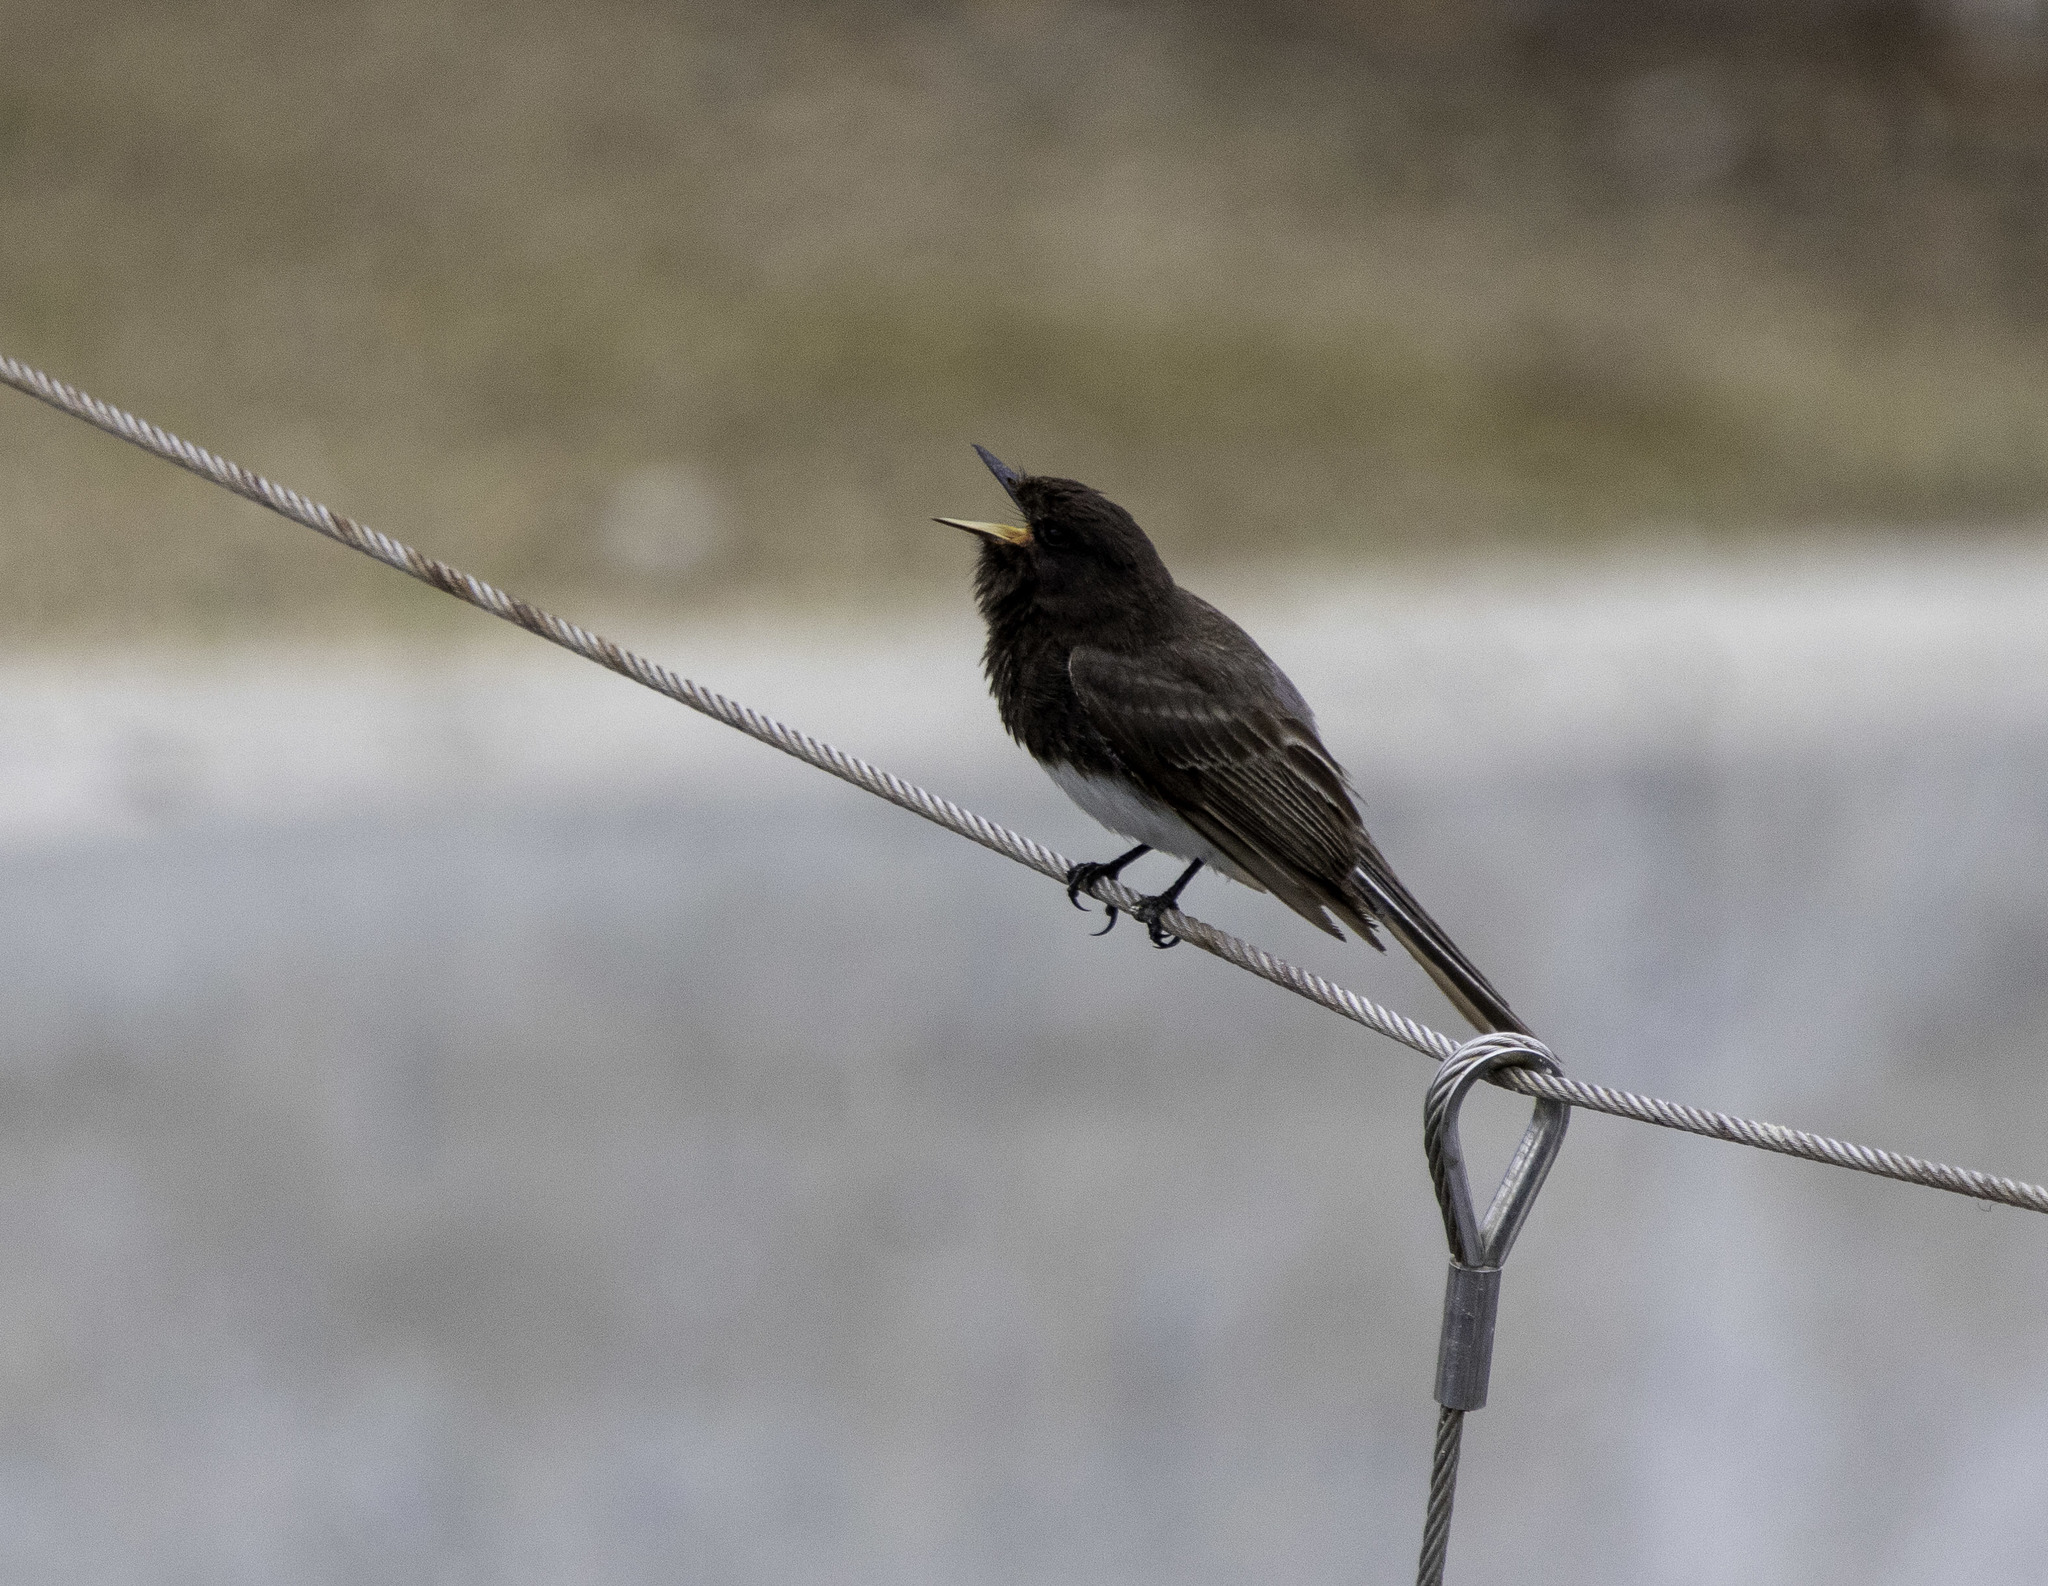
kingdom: Animalia
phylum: Chordata
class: Aves
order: Passeriformes
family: Tyrannidae
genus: Sayornis
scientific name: Sayornis nigricans
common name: Black phoebe
